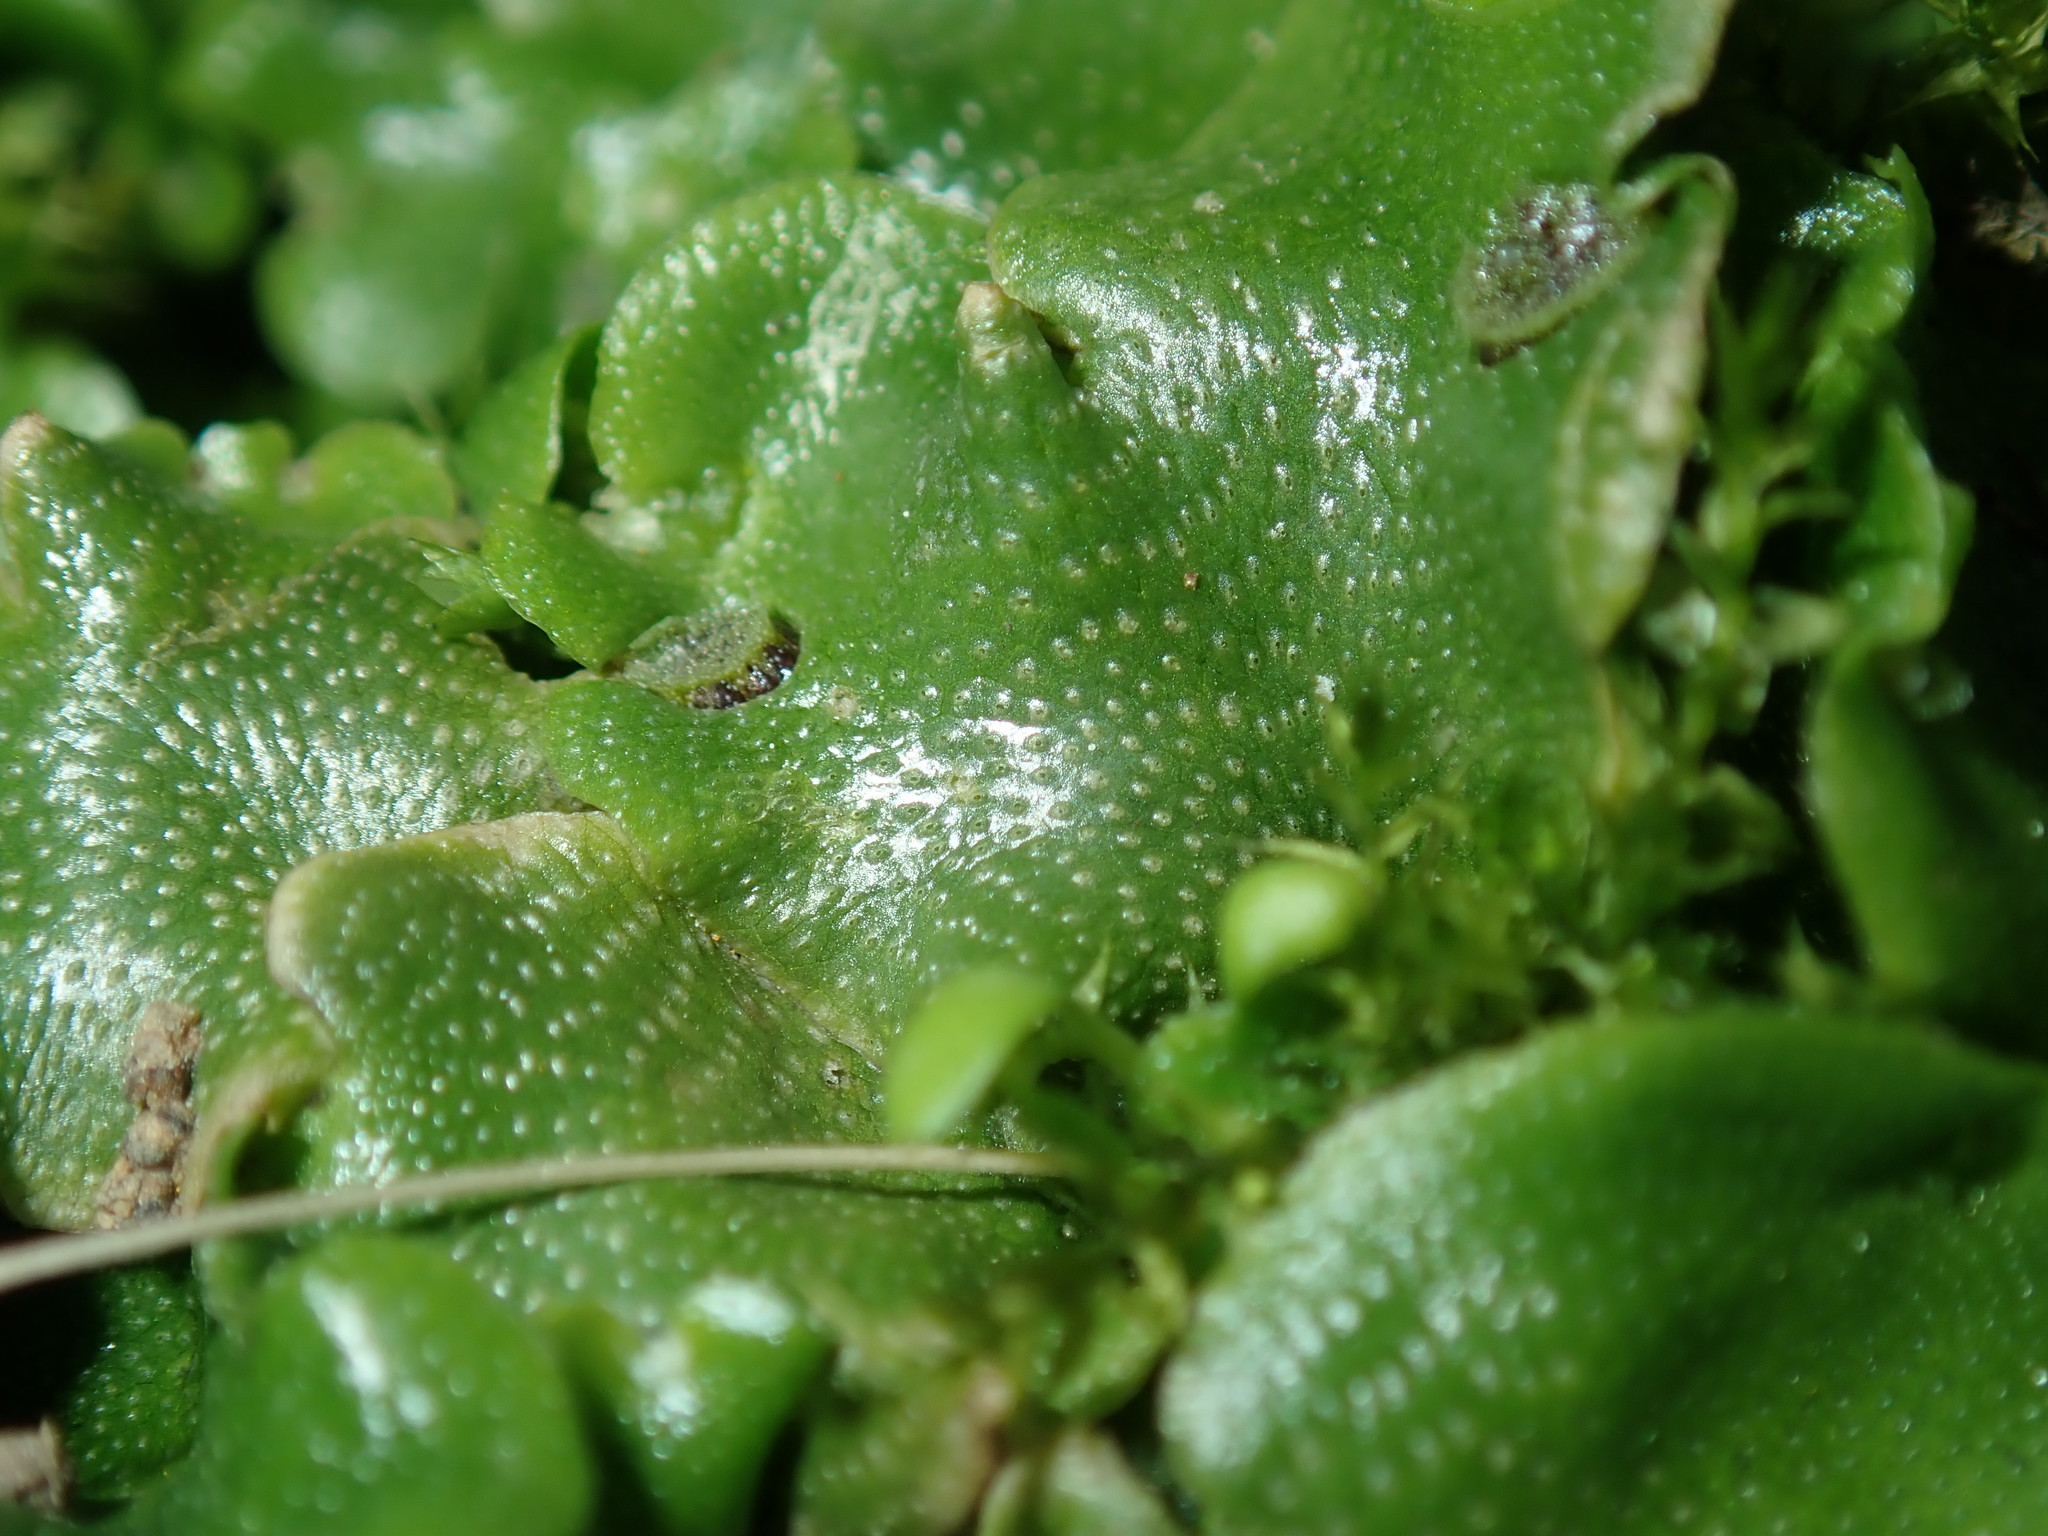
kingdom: Plantae
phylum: Marchantiophyta
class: Marchantiopsida
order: Lunulariales
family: Lunulariaceae
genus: Lunularia
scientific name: Lunularia cruciata
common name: Crescent-cup liverwort
